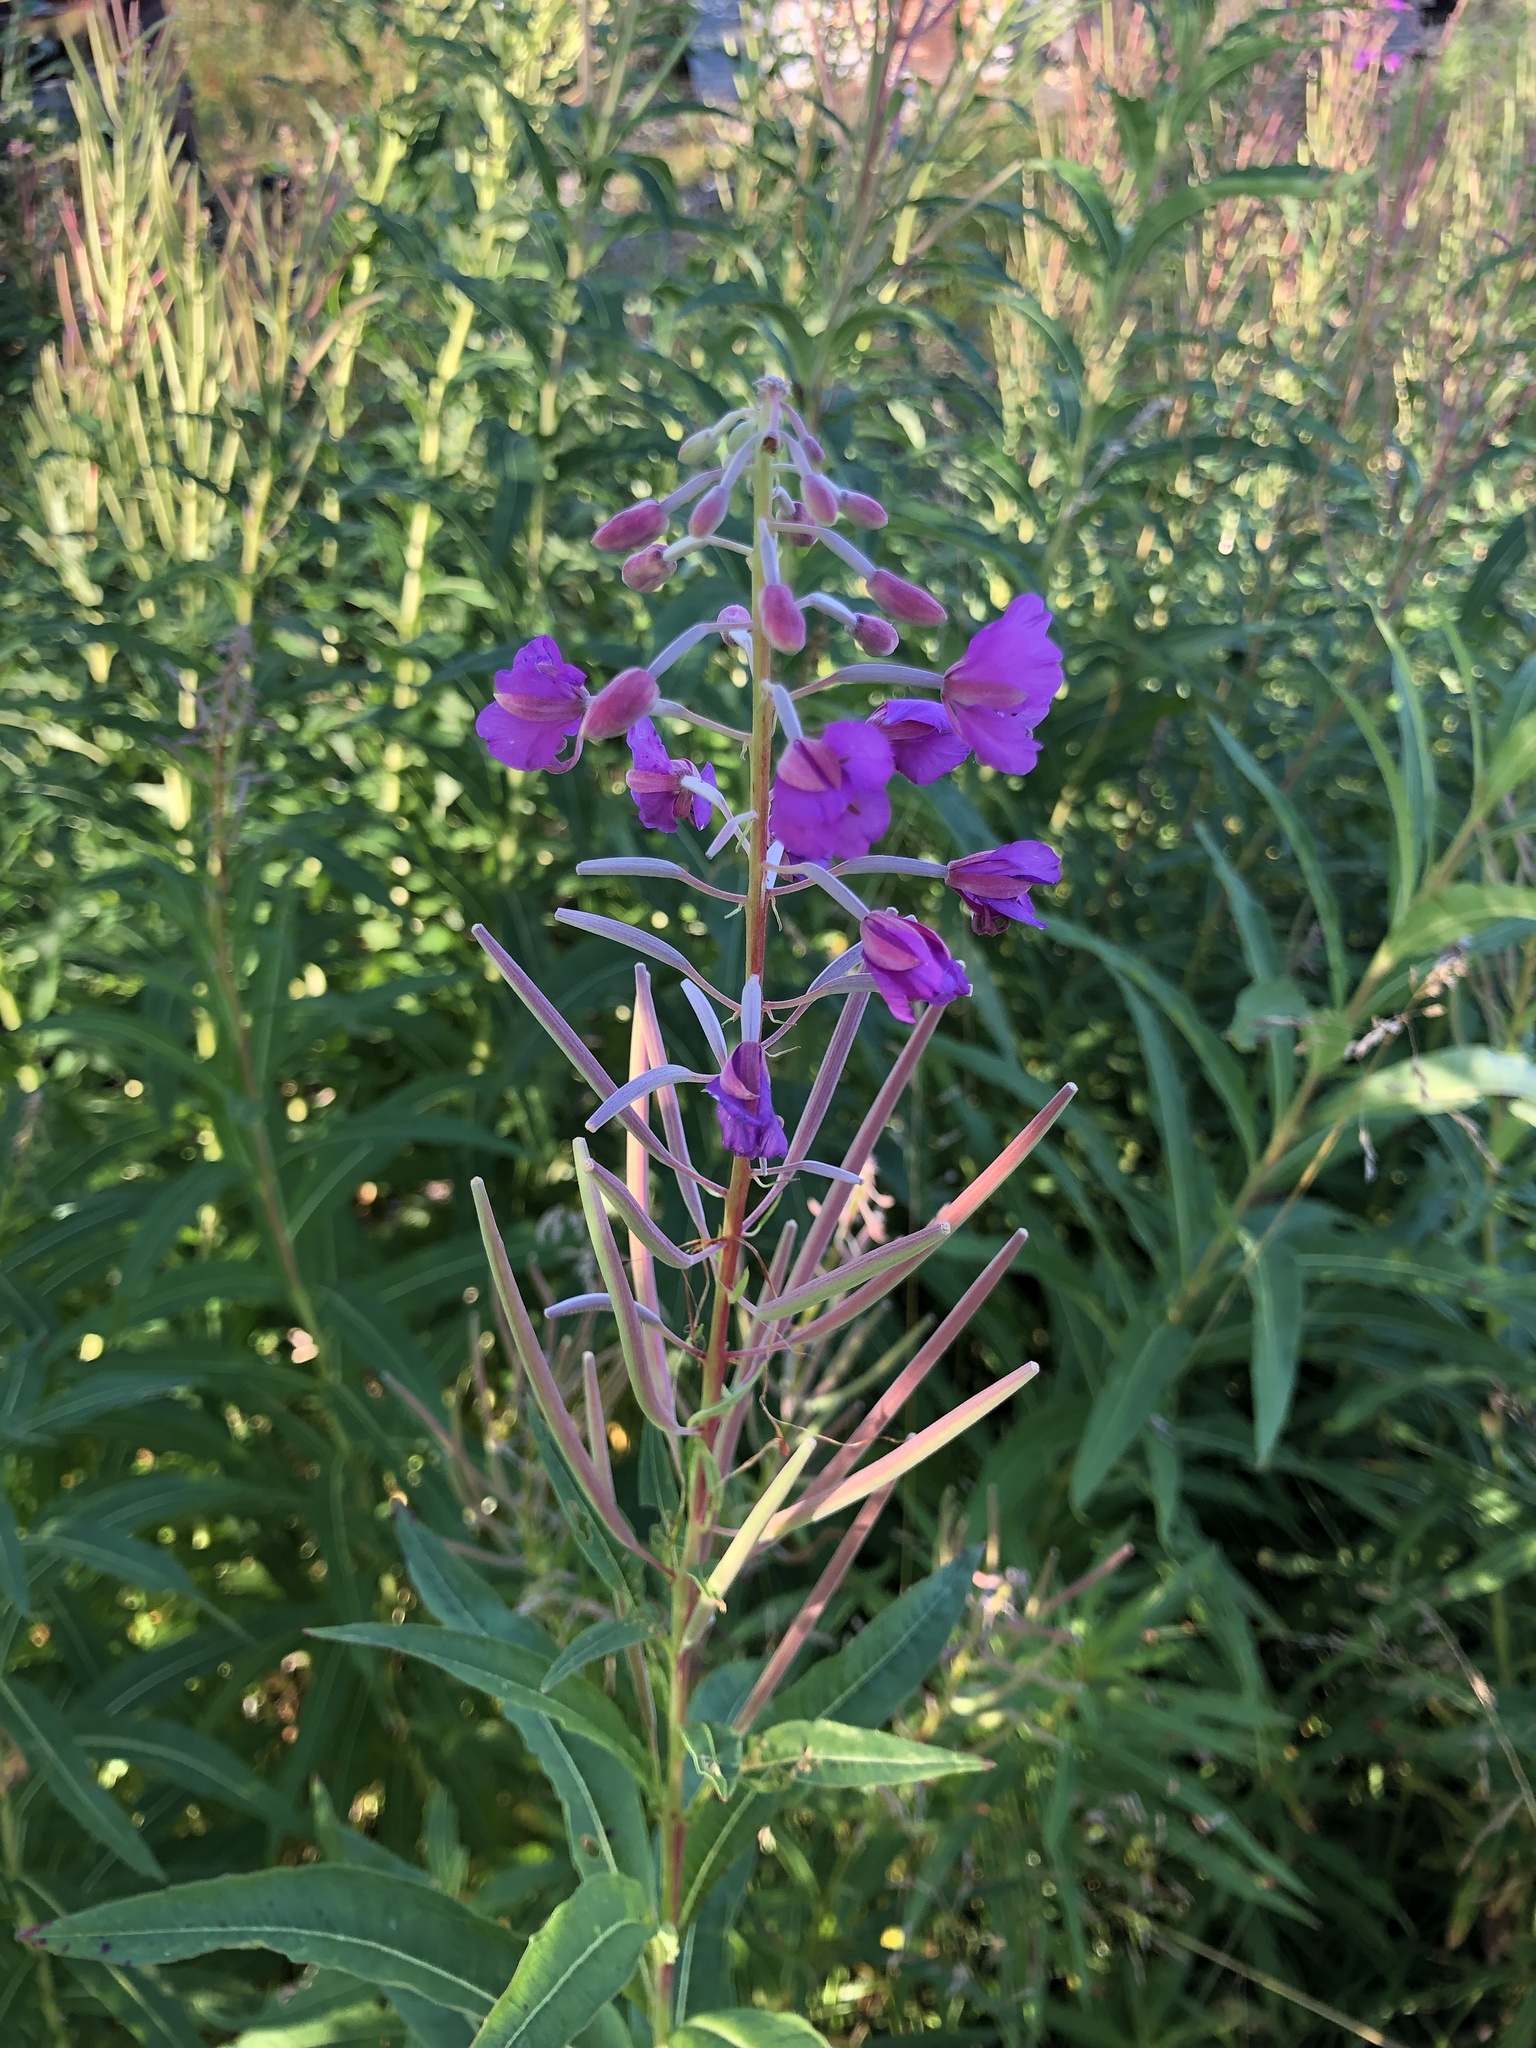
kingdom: Plantae
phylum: Tracheophyta
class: Magnoliopsida
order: Myrtales
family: Onagraceae
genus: Chamaenerion
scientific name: Chamaenerion angustifolium
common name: Fireweed
